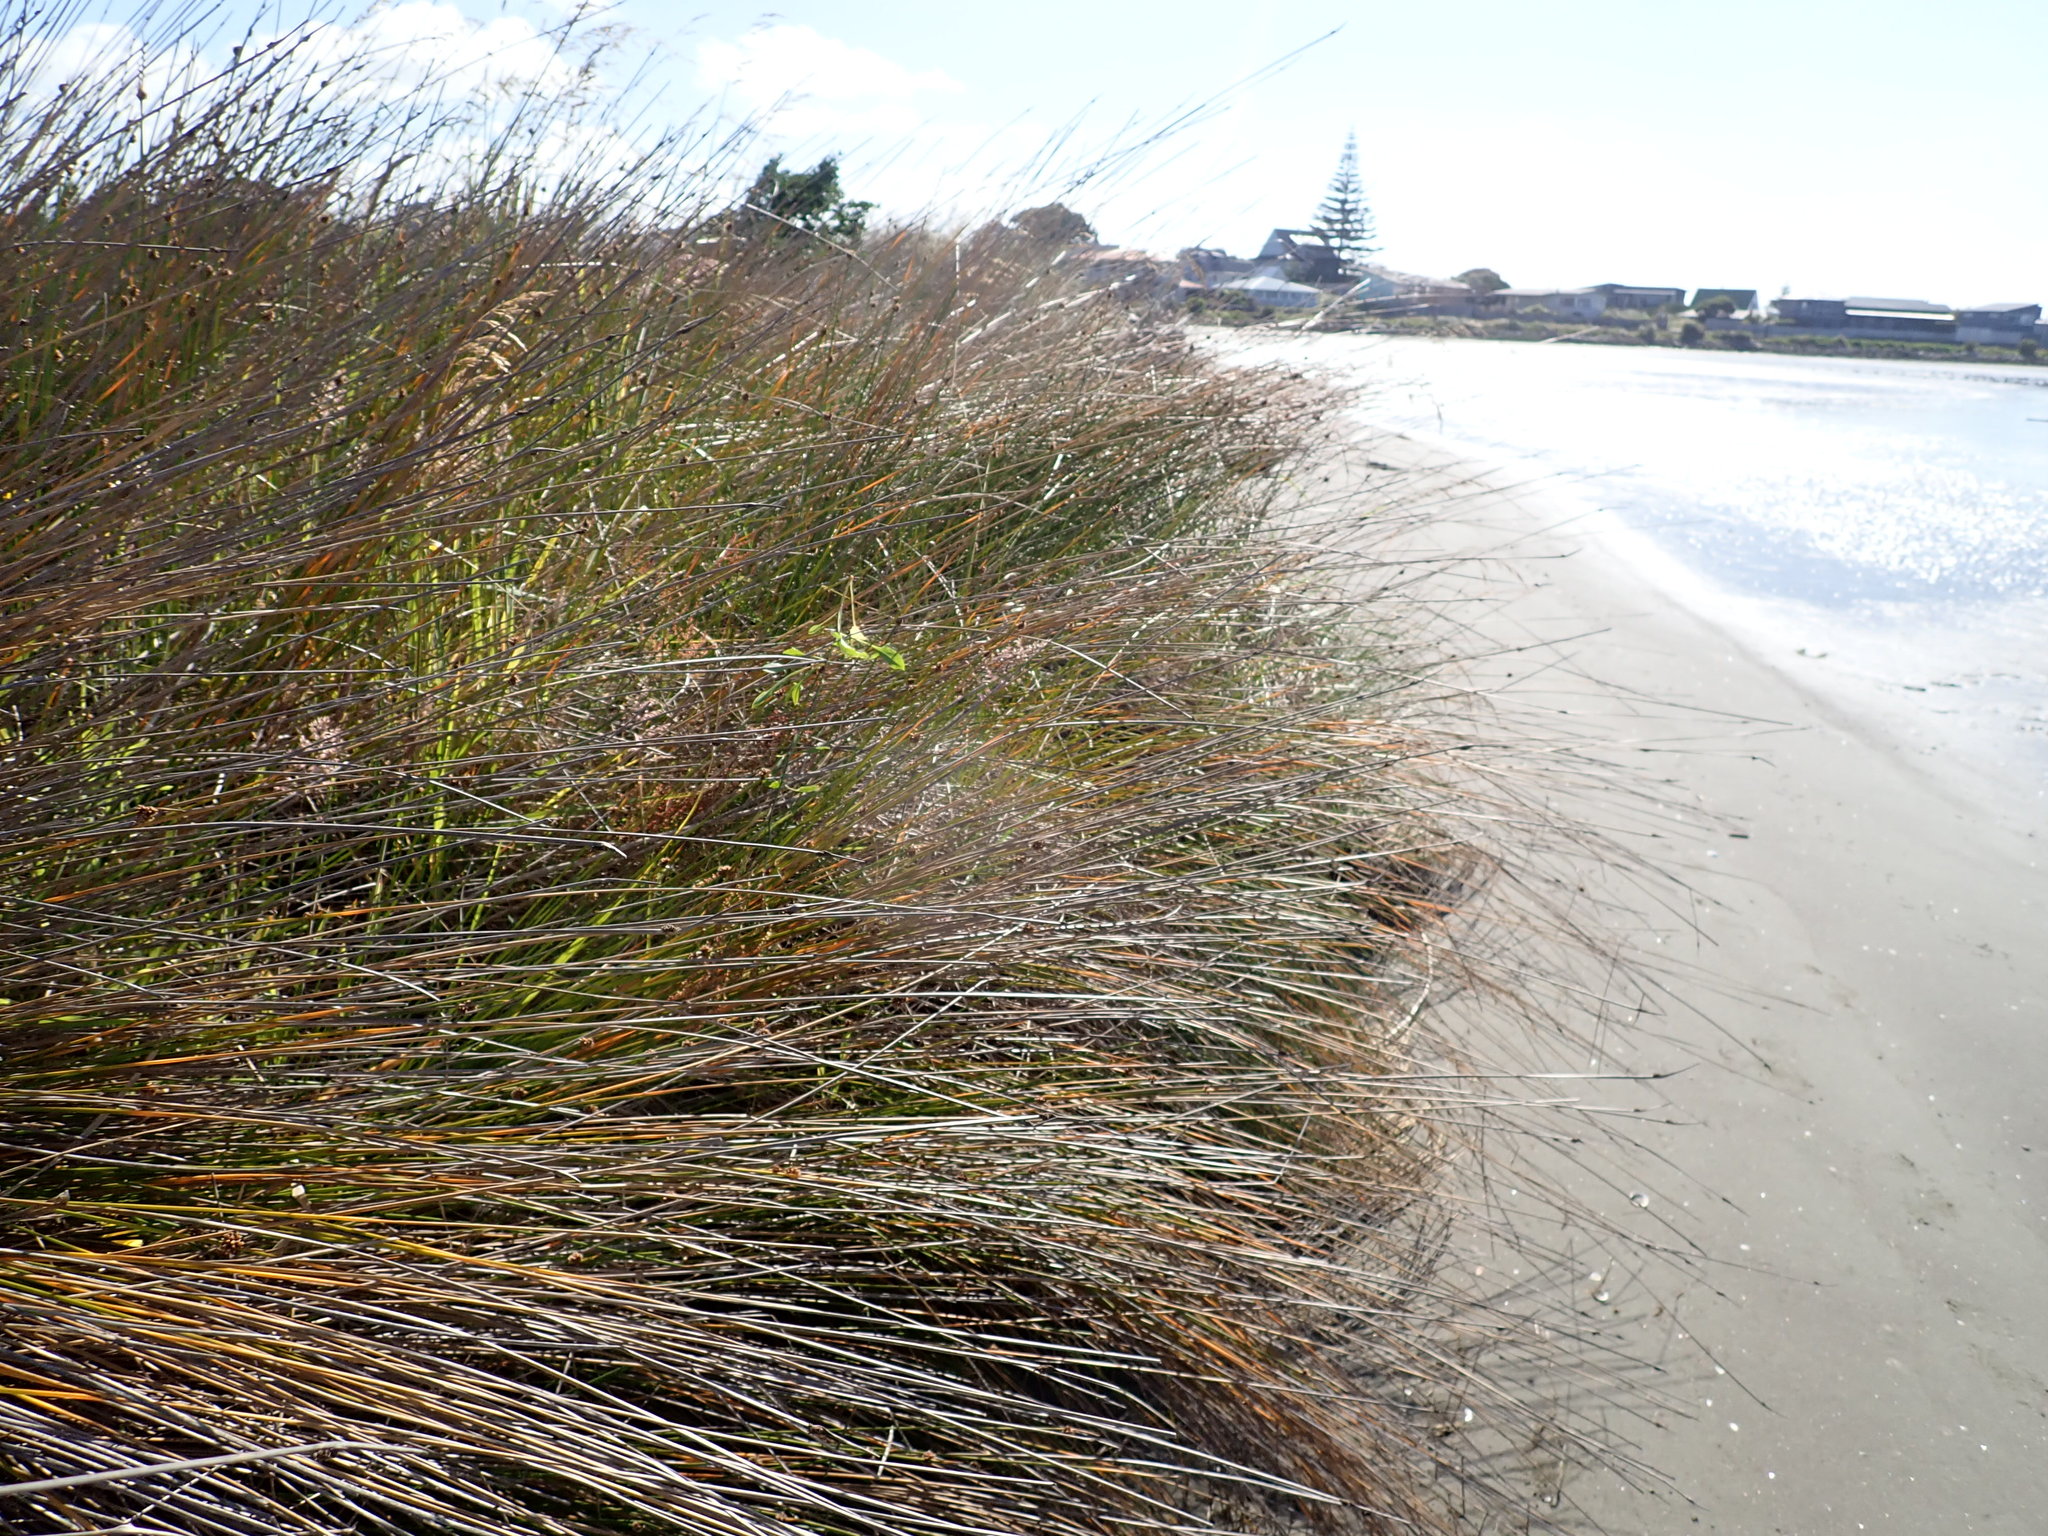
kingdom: Plantae
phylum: Tracheophyta
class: Magnoliopsida
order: Caryophyllales
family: Polygonaceae
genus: Rumex
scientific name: Rumex acetosella
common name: Common sheep sorrel
